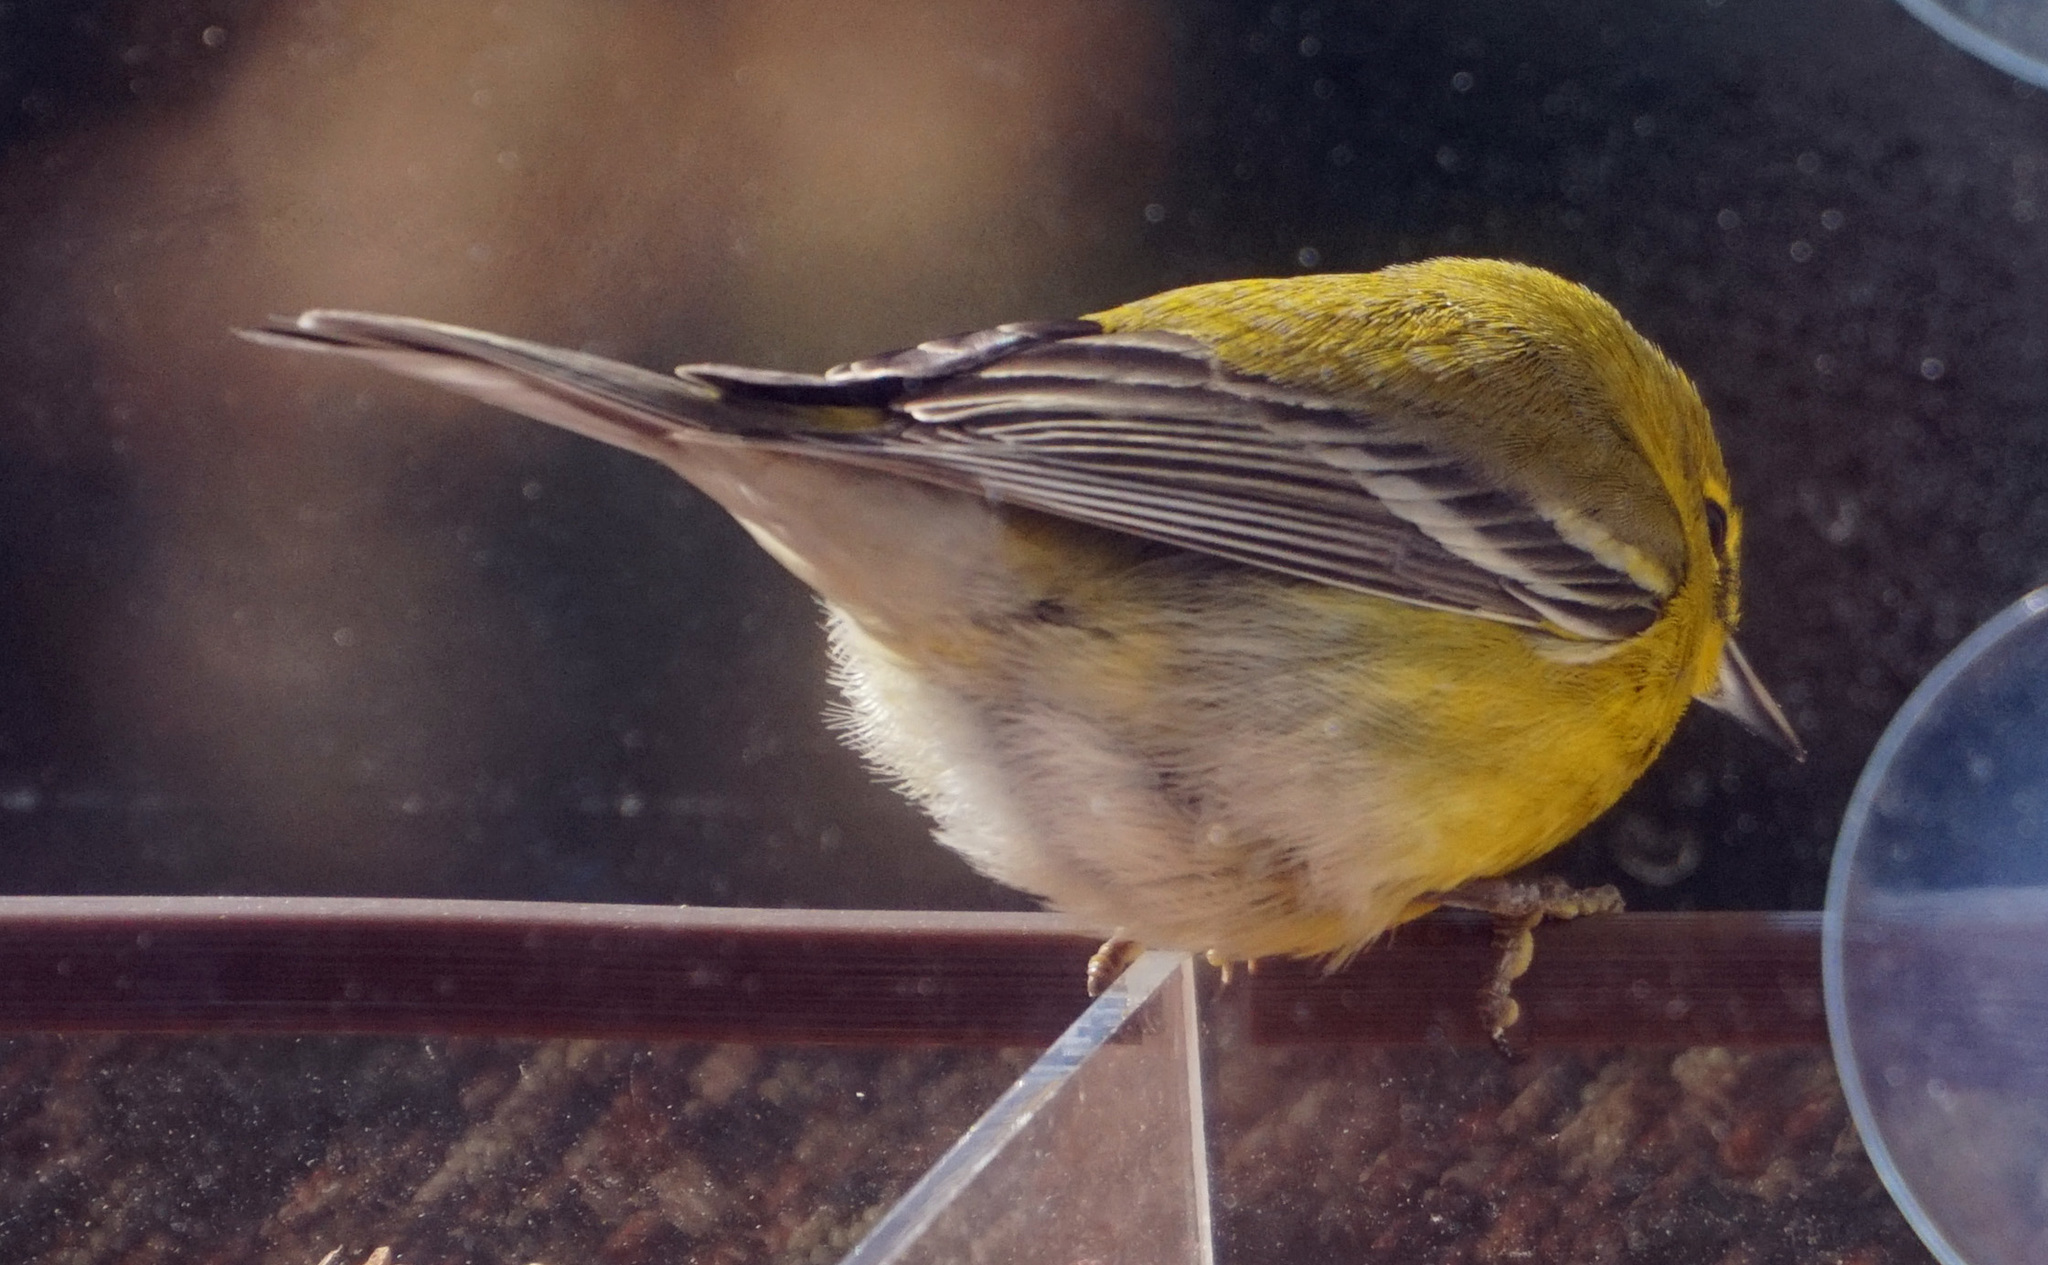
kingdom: Animalia
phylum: Chordata
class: Aves
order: Passeriformes
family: Parulidae
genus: Setophaga
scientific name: Setophaga pinus
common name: Pine warbler
